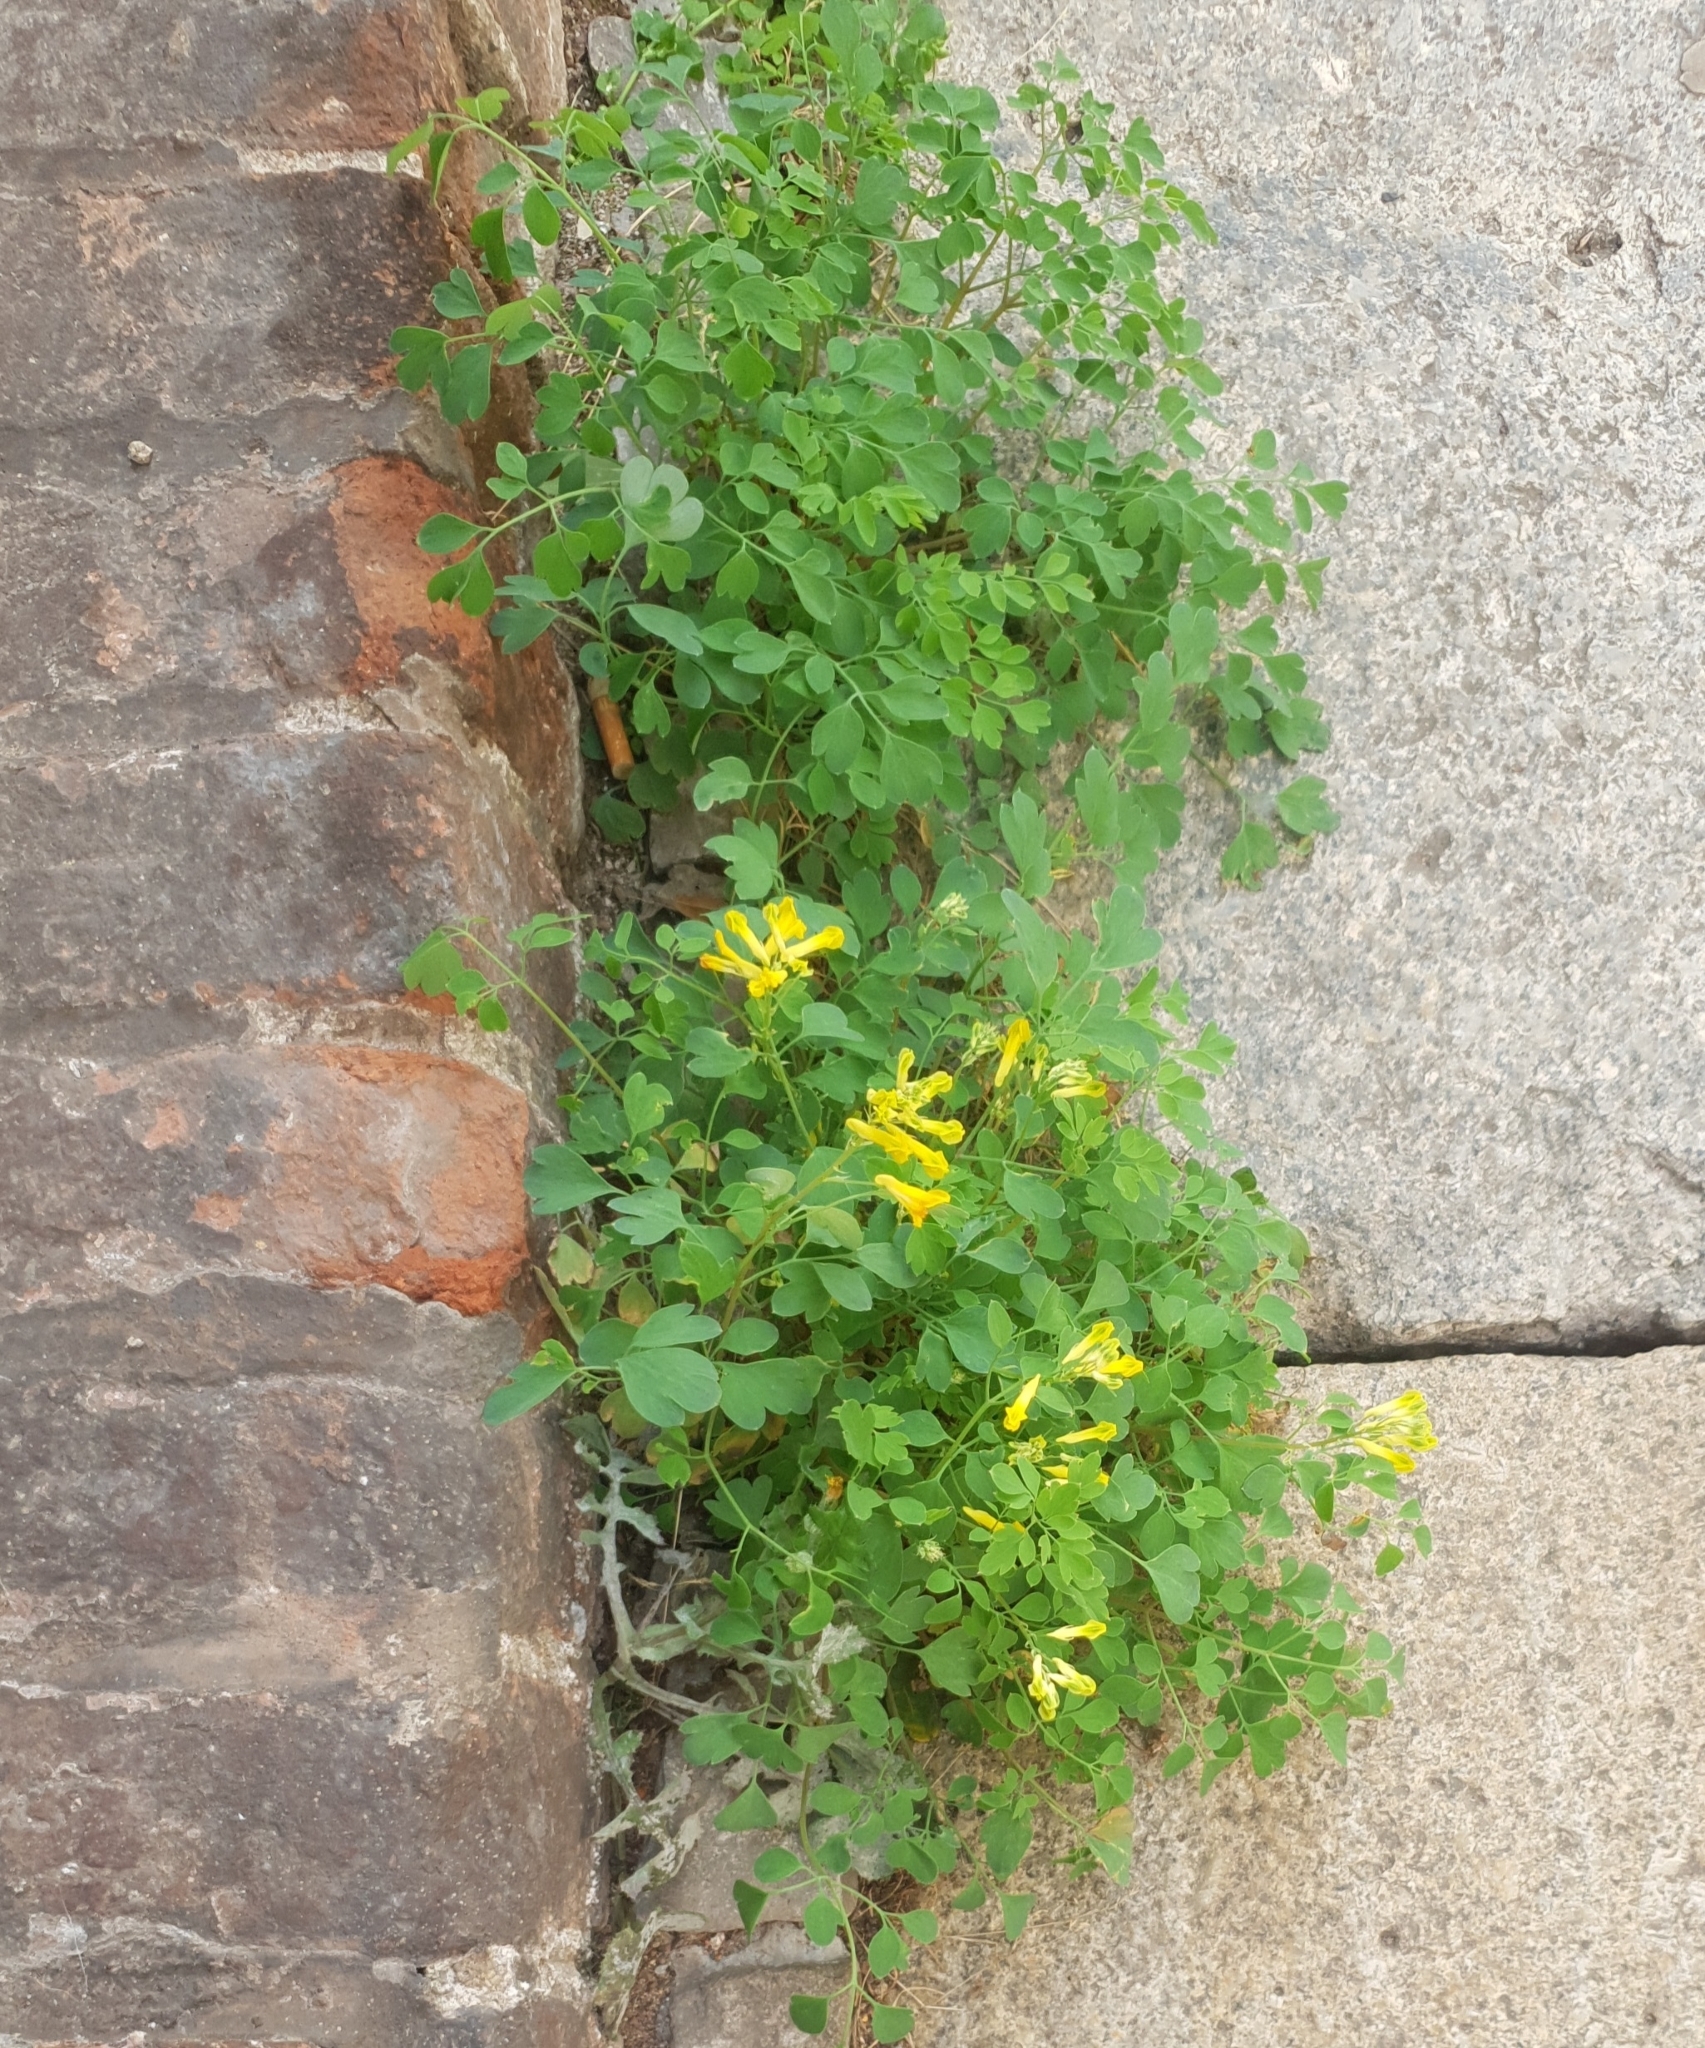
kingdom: Plantae
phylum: Tracheophyta
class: Magnoliopsida
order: Ranunculales
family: Papaveraceae
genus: Pseudofumaria
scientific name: Pseudofumaria lutea
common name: Yellow corydalis
